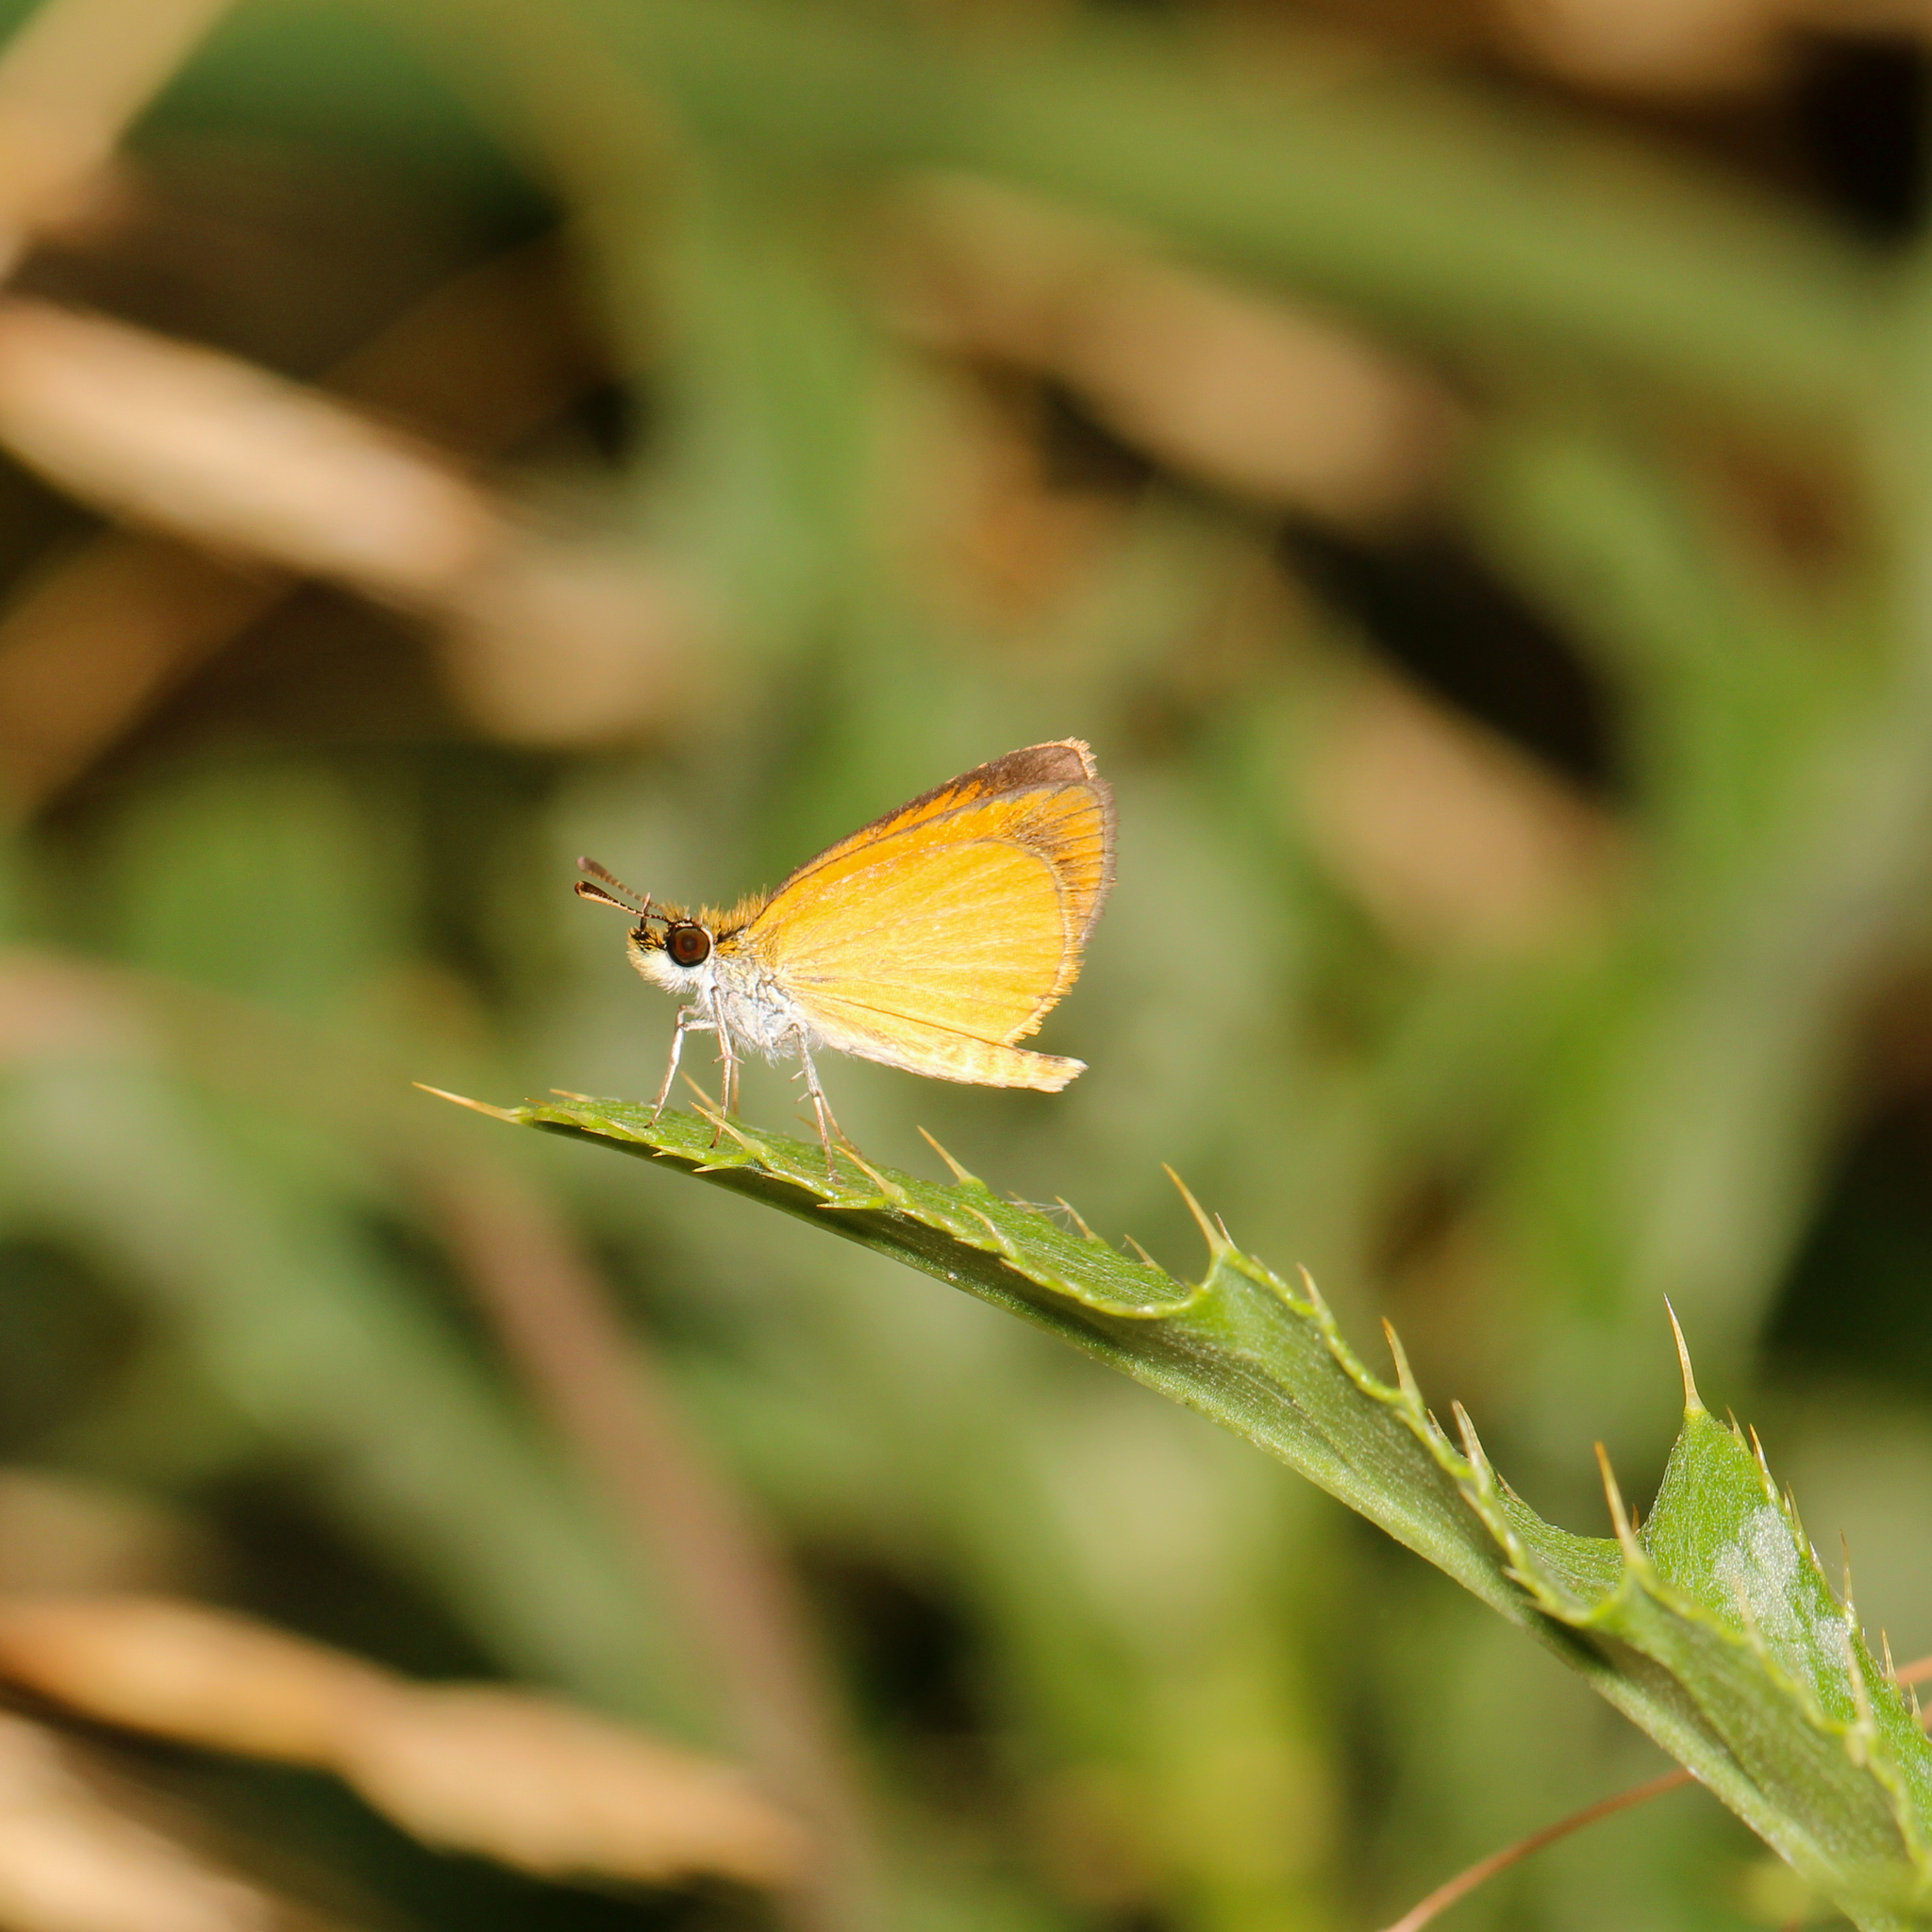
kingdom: Animalia
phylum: Arthropoda
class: Insecta
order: Lepidoptera
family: Hesperiidae
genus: Ancyloxypha
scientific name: Ancyloxypha numitor
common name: Least skipper
